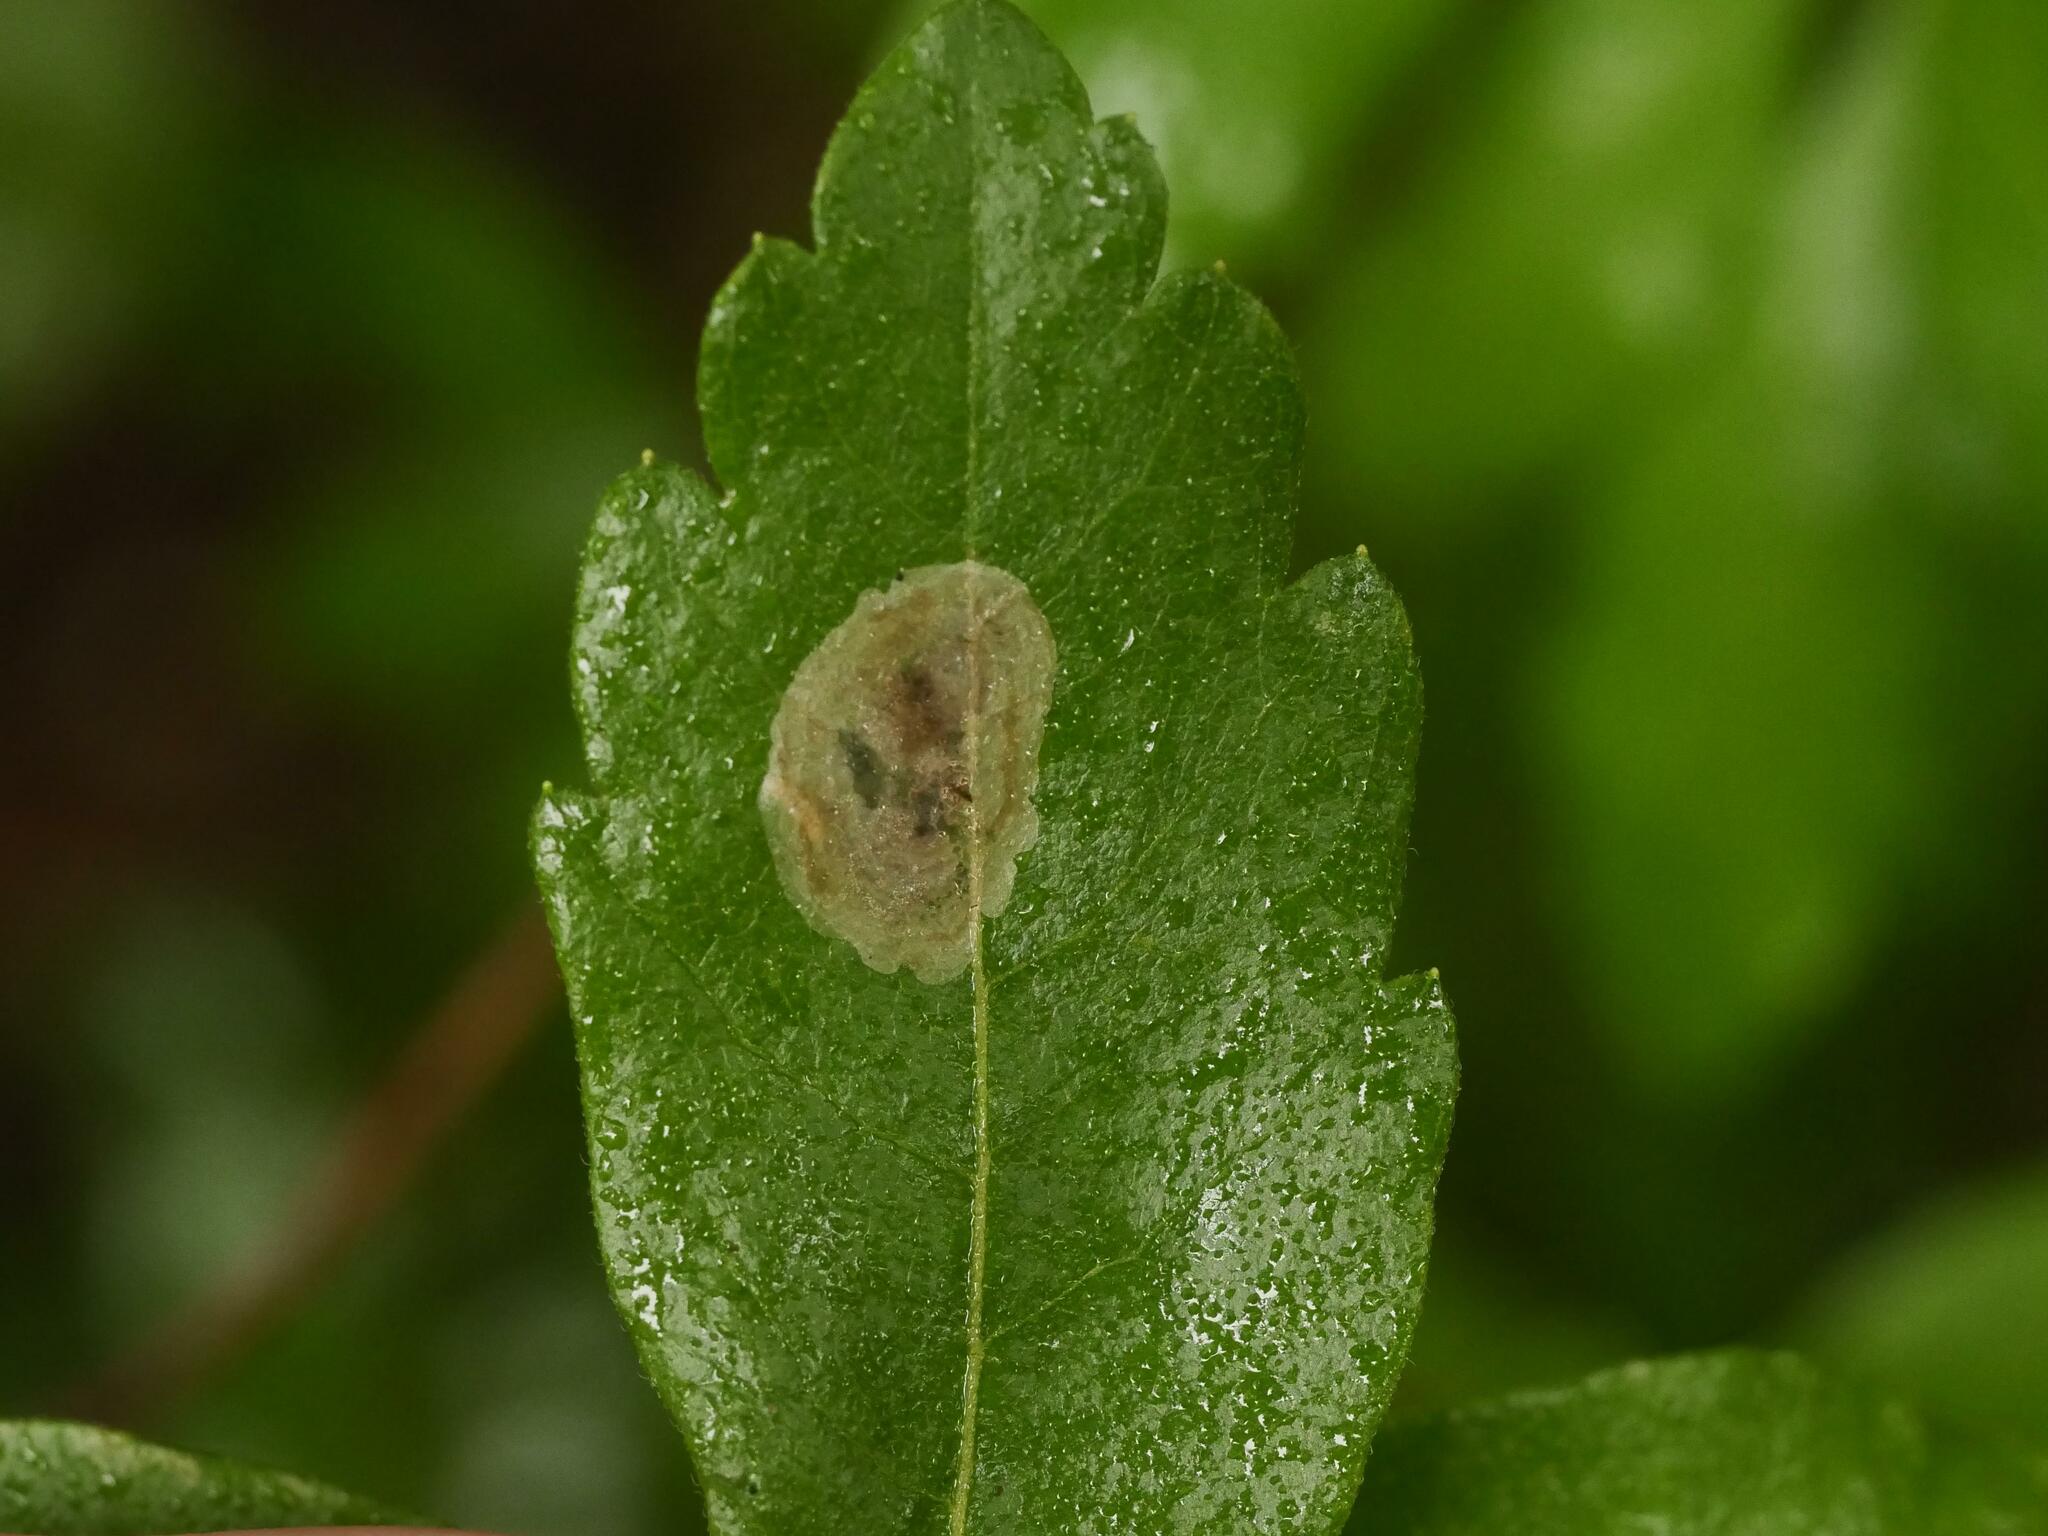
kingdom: Animalia
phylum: Arthropoda
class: Insecta
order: Lepidoptera
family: Gracillariidae
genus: Cameraria
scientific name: Cameraria picturatella
